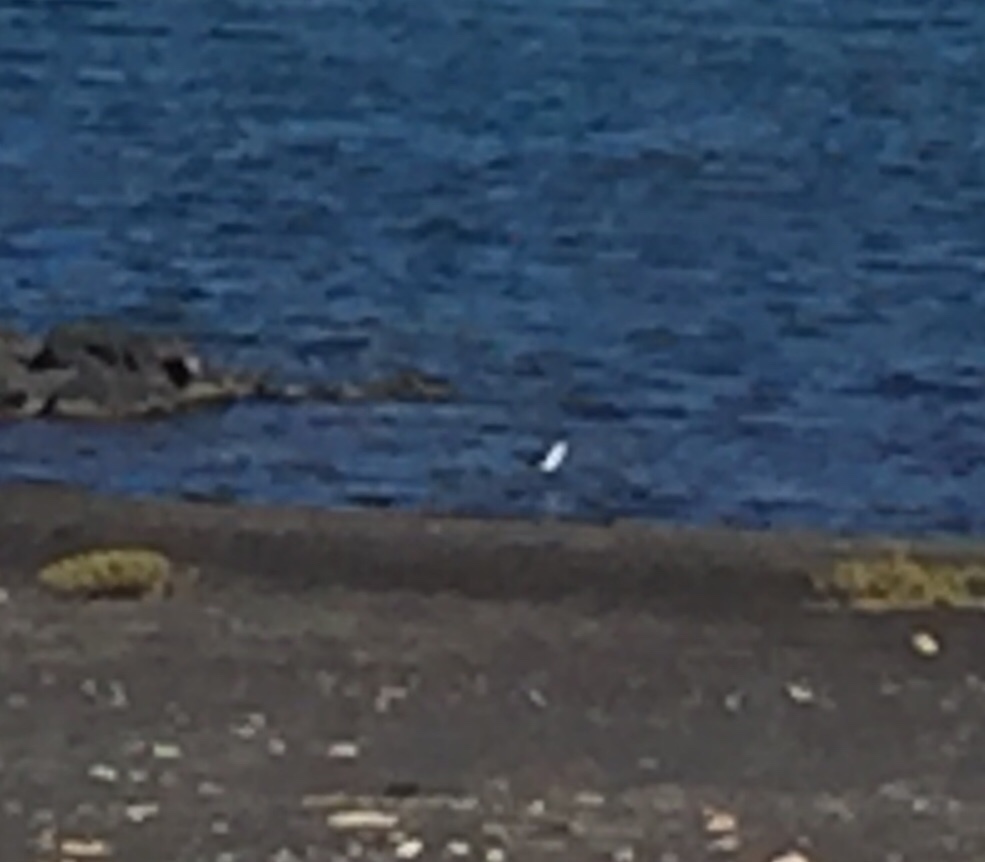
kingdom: Animalia
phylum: Chordata
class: Aves
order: Charadriiformes
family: Recurvirostridae
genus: Himantopus
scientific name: Himantopus himantopus
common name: Black-winged stilt
